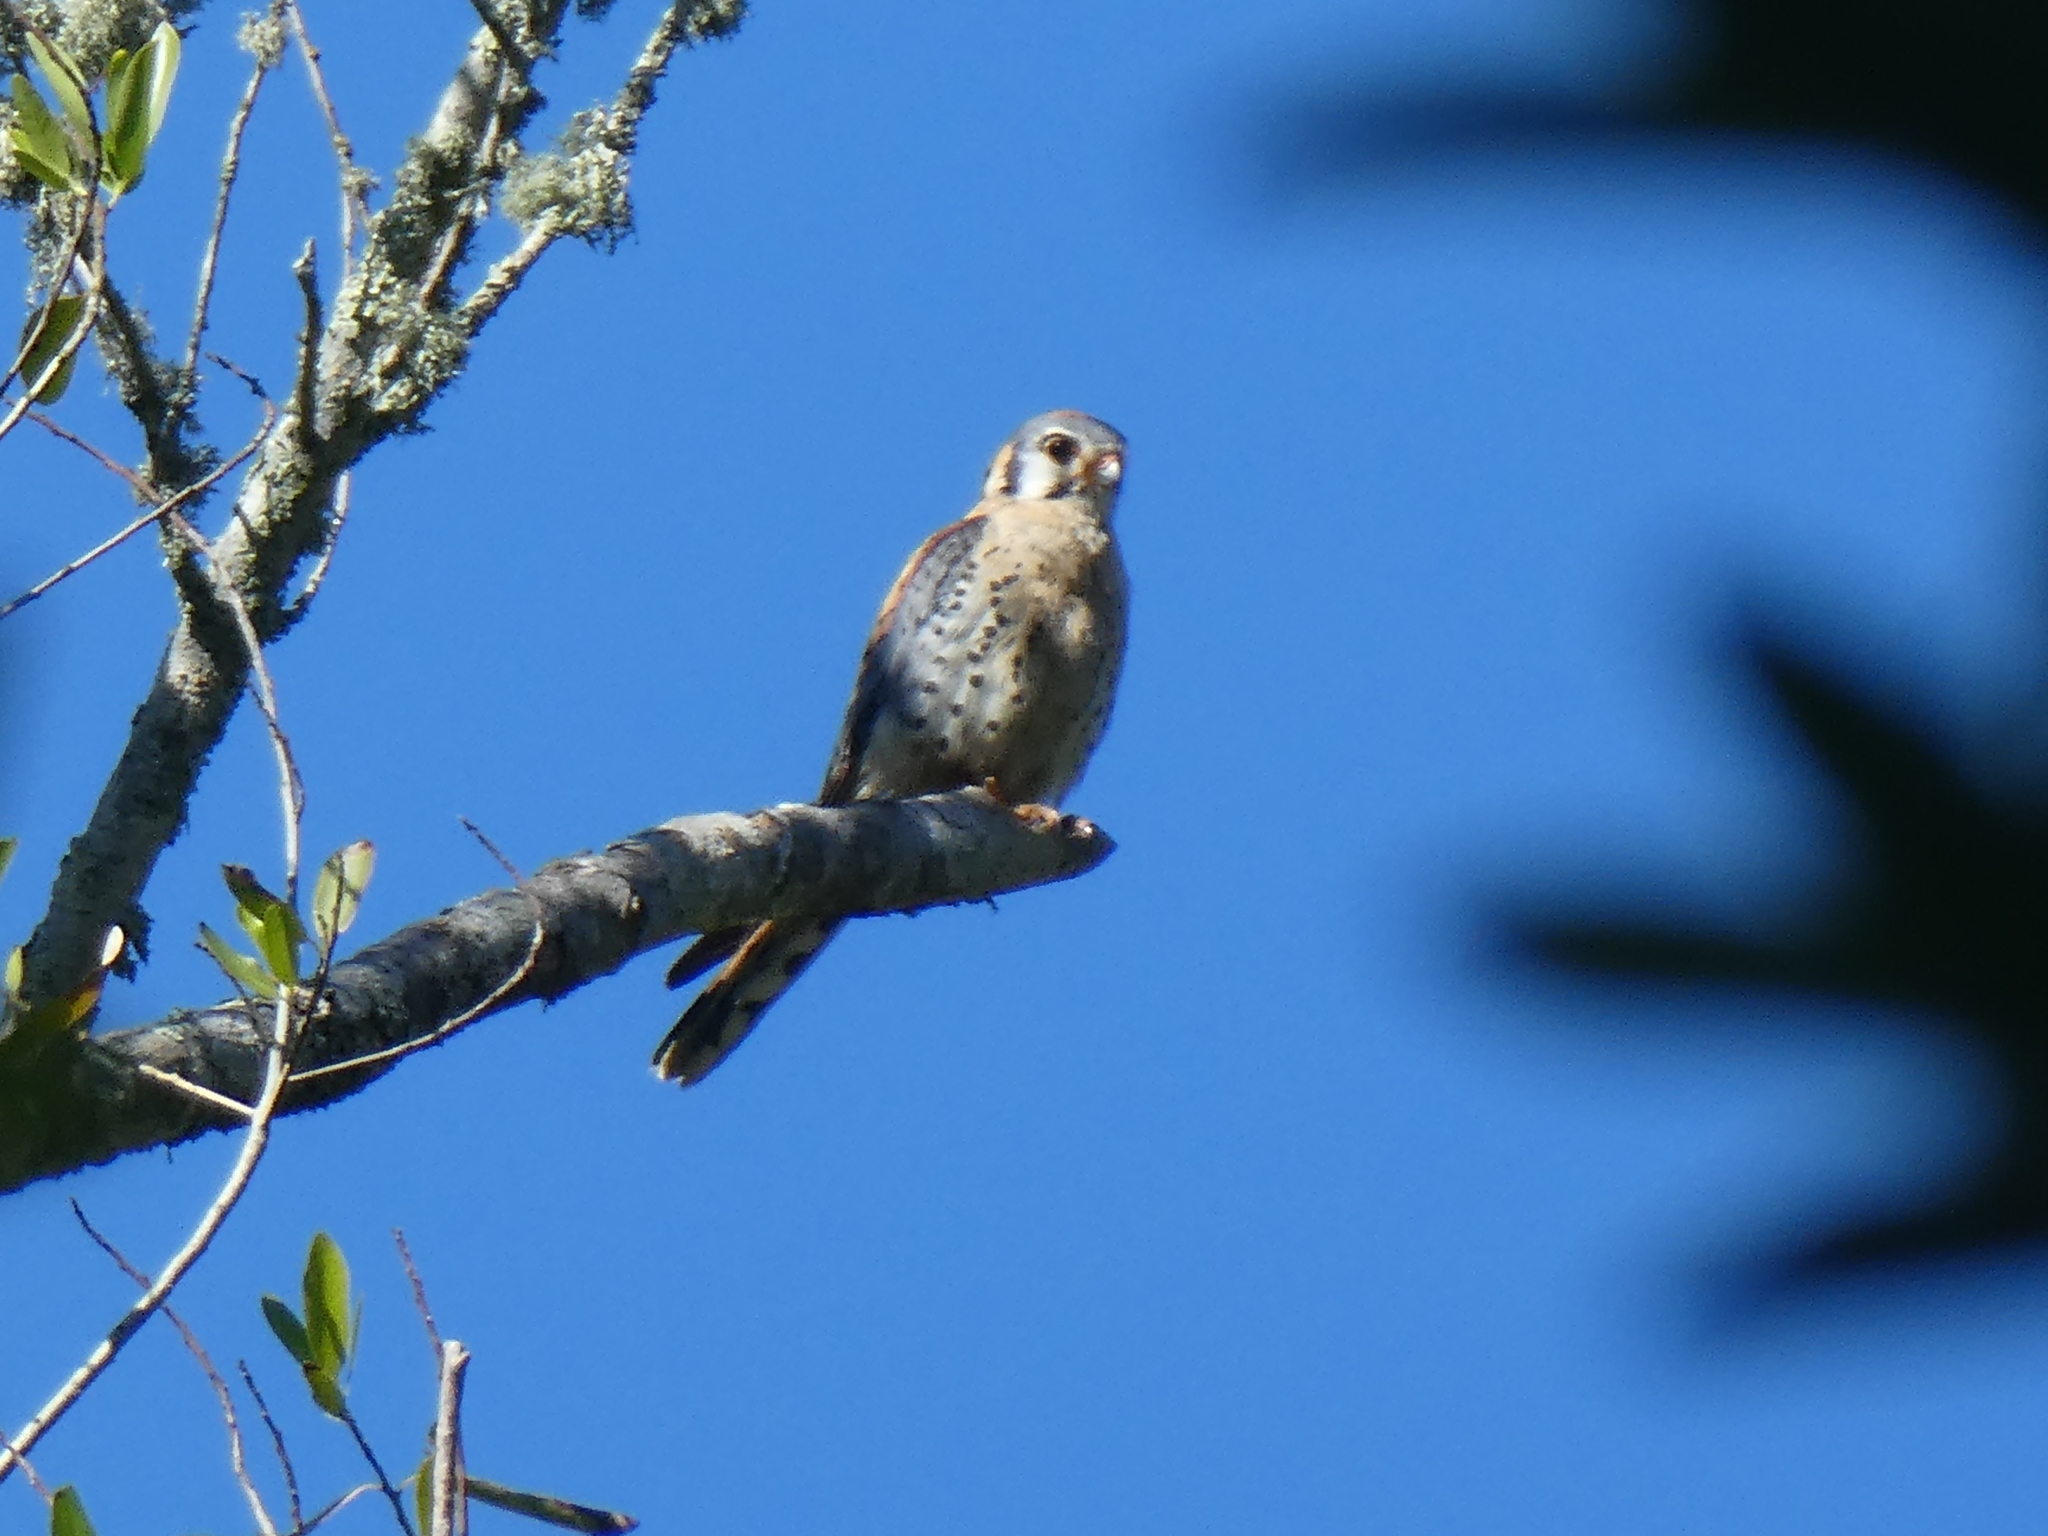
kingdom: Animalia
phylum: Chordata
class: Aves
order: Falconiformes
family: Falconidae
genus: Falco
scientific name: Falco sparverius
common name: American kestrel
